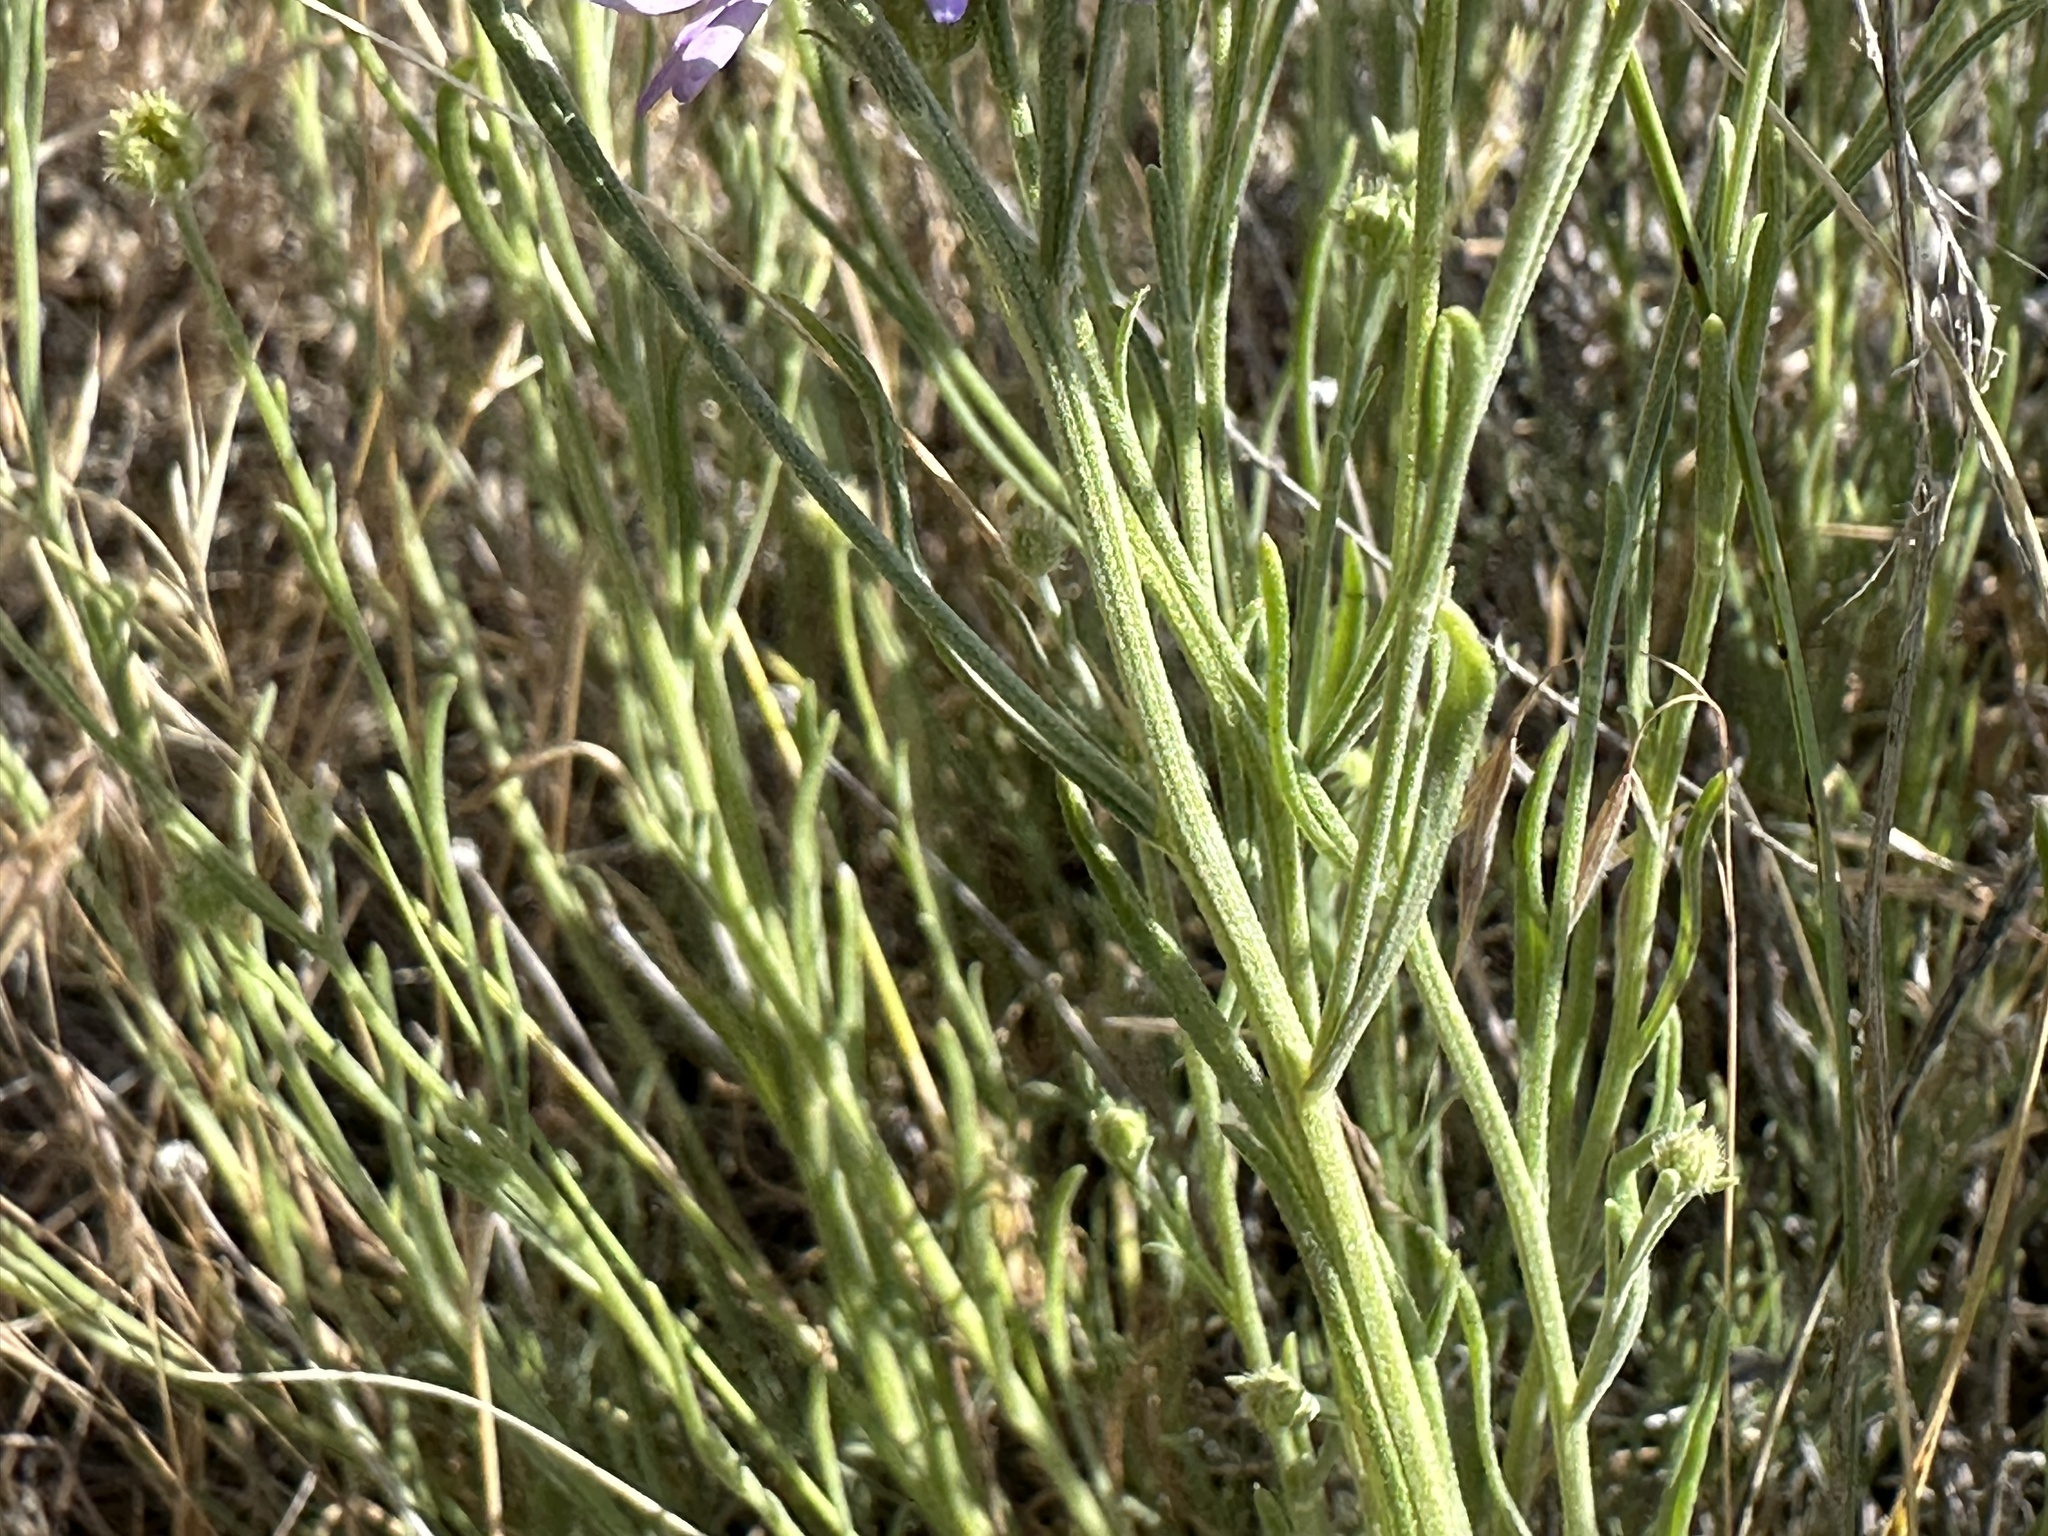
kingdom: Plantae
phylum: Tracheophyta
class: Magnoliopsida
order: Asterales
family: Asteraceae
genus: Erigeron
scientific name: Erigeron filifolius
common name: Threadleaf fleabane
